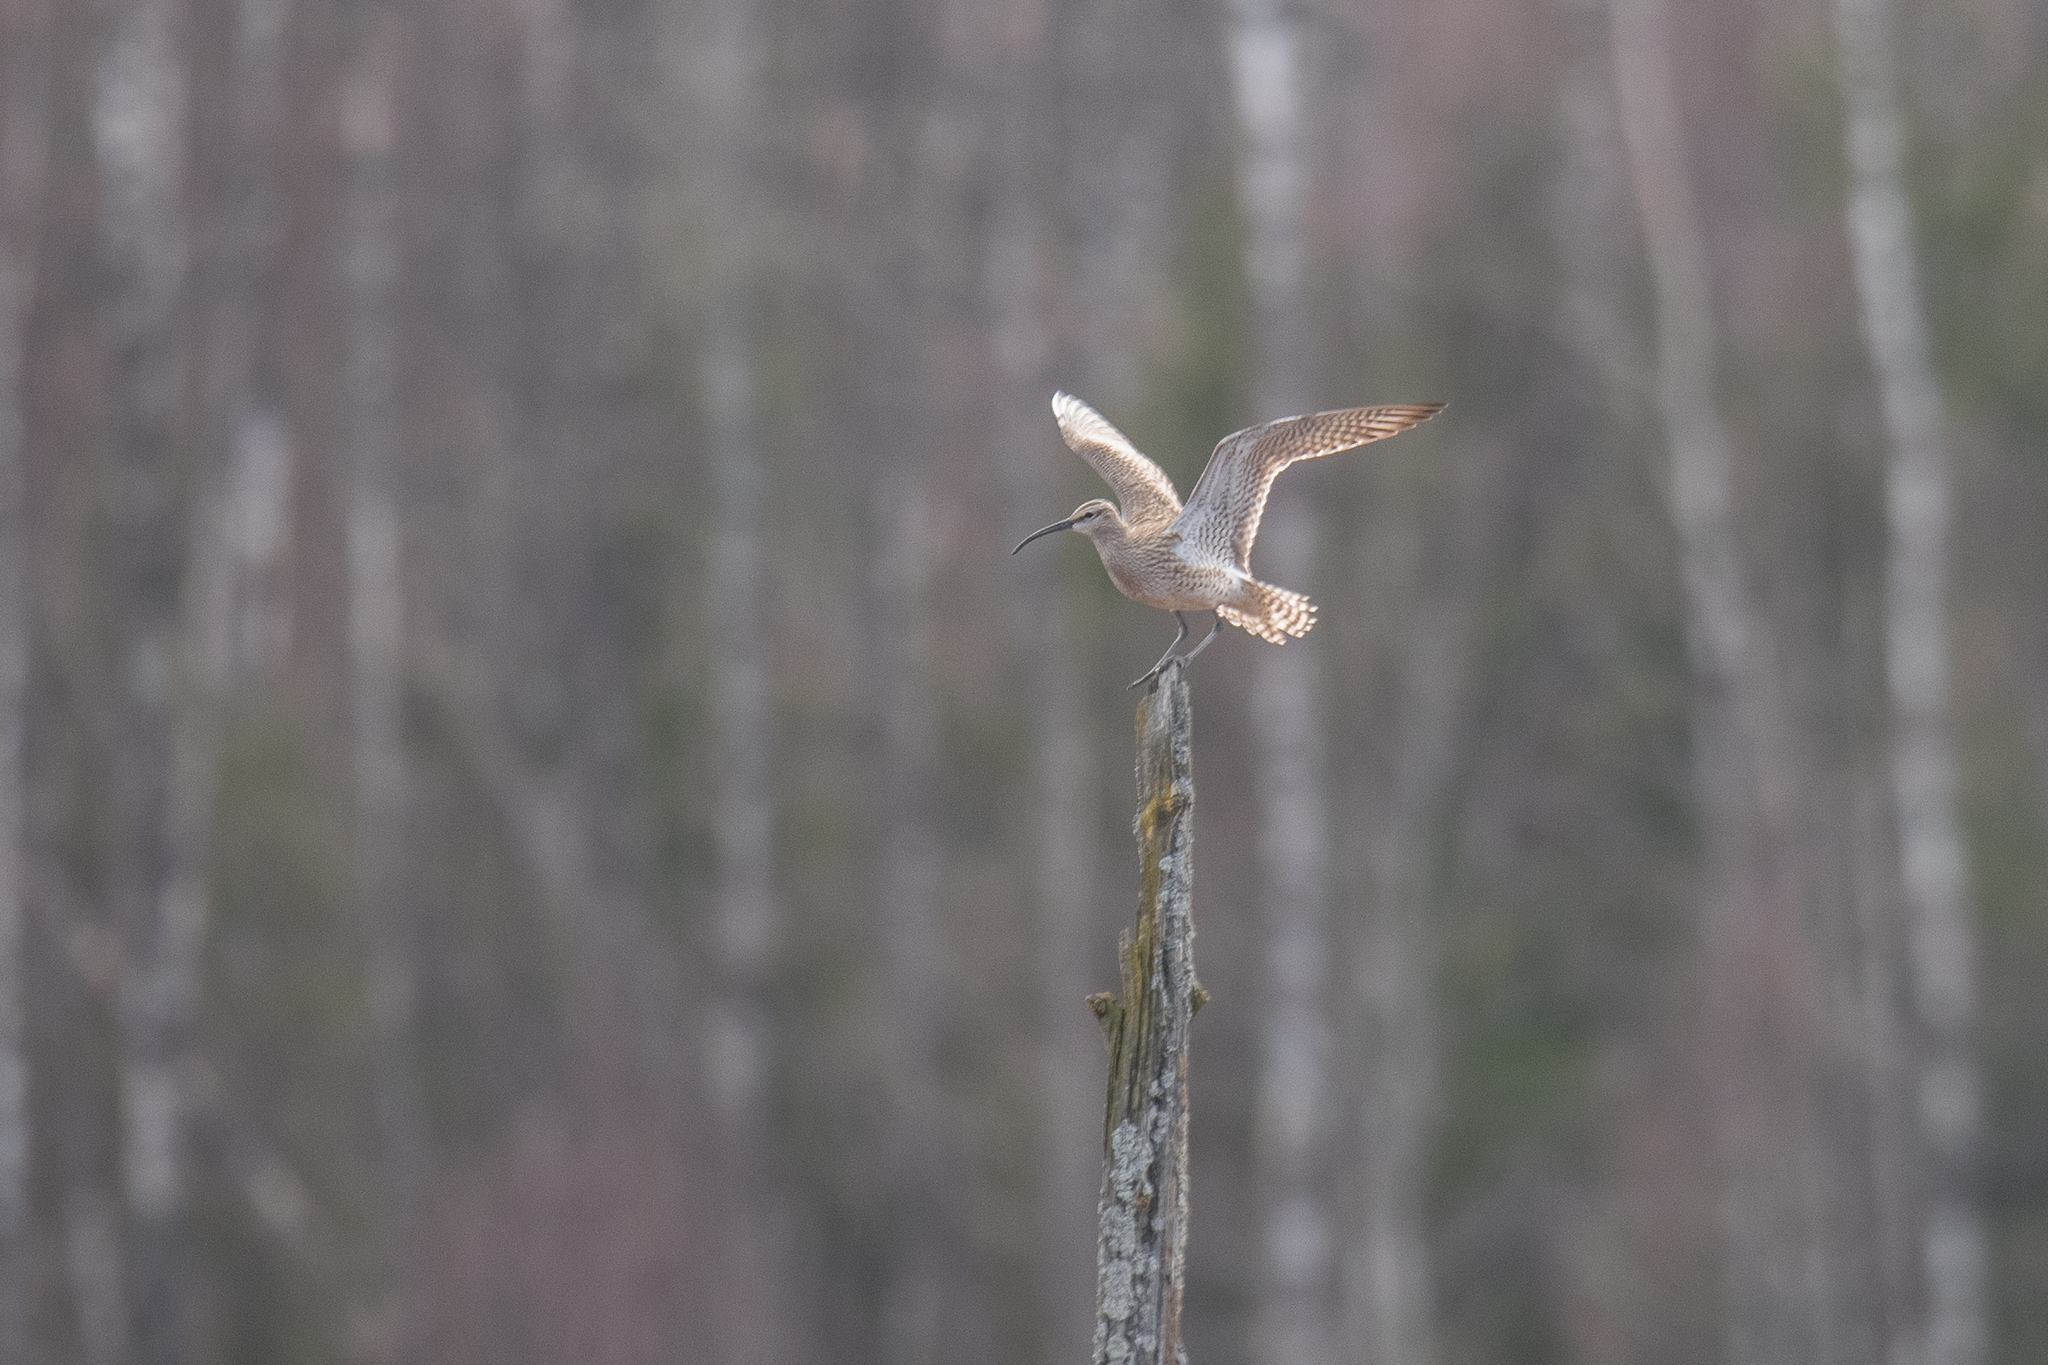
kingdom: Animalia
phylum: Chordata
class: Aves
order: Charadriiformes
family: Scolopacidae
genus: Numenius
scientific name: Numenius phaeopus
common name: Whimbrel
